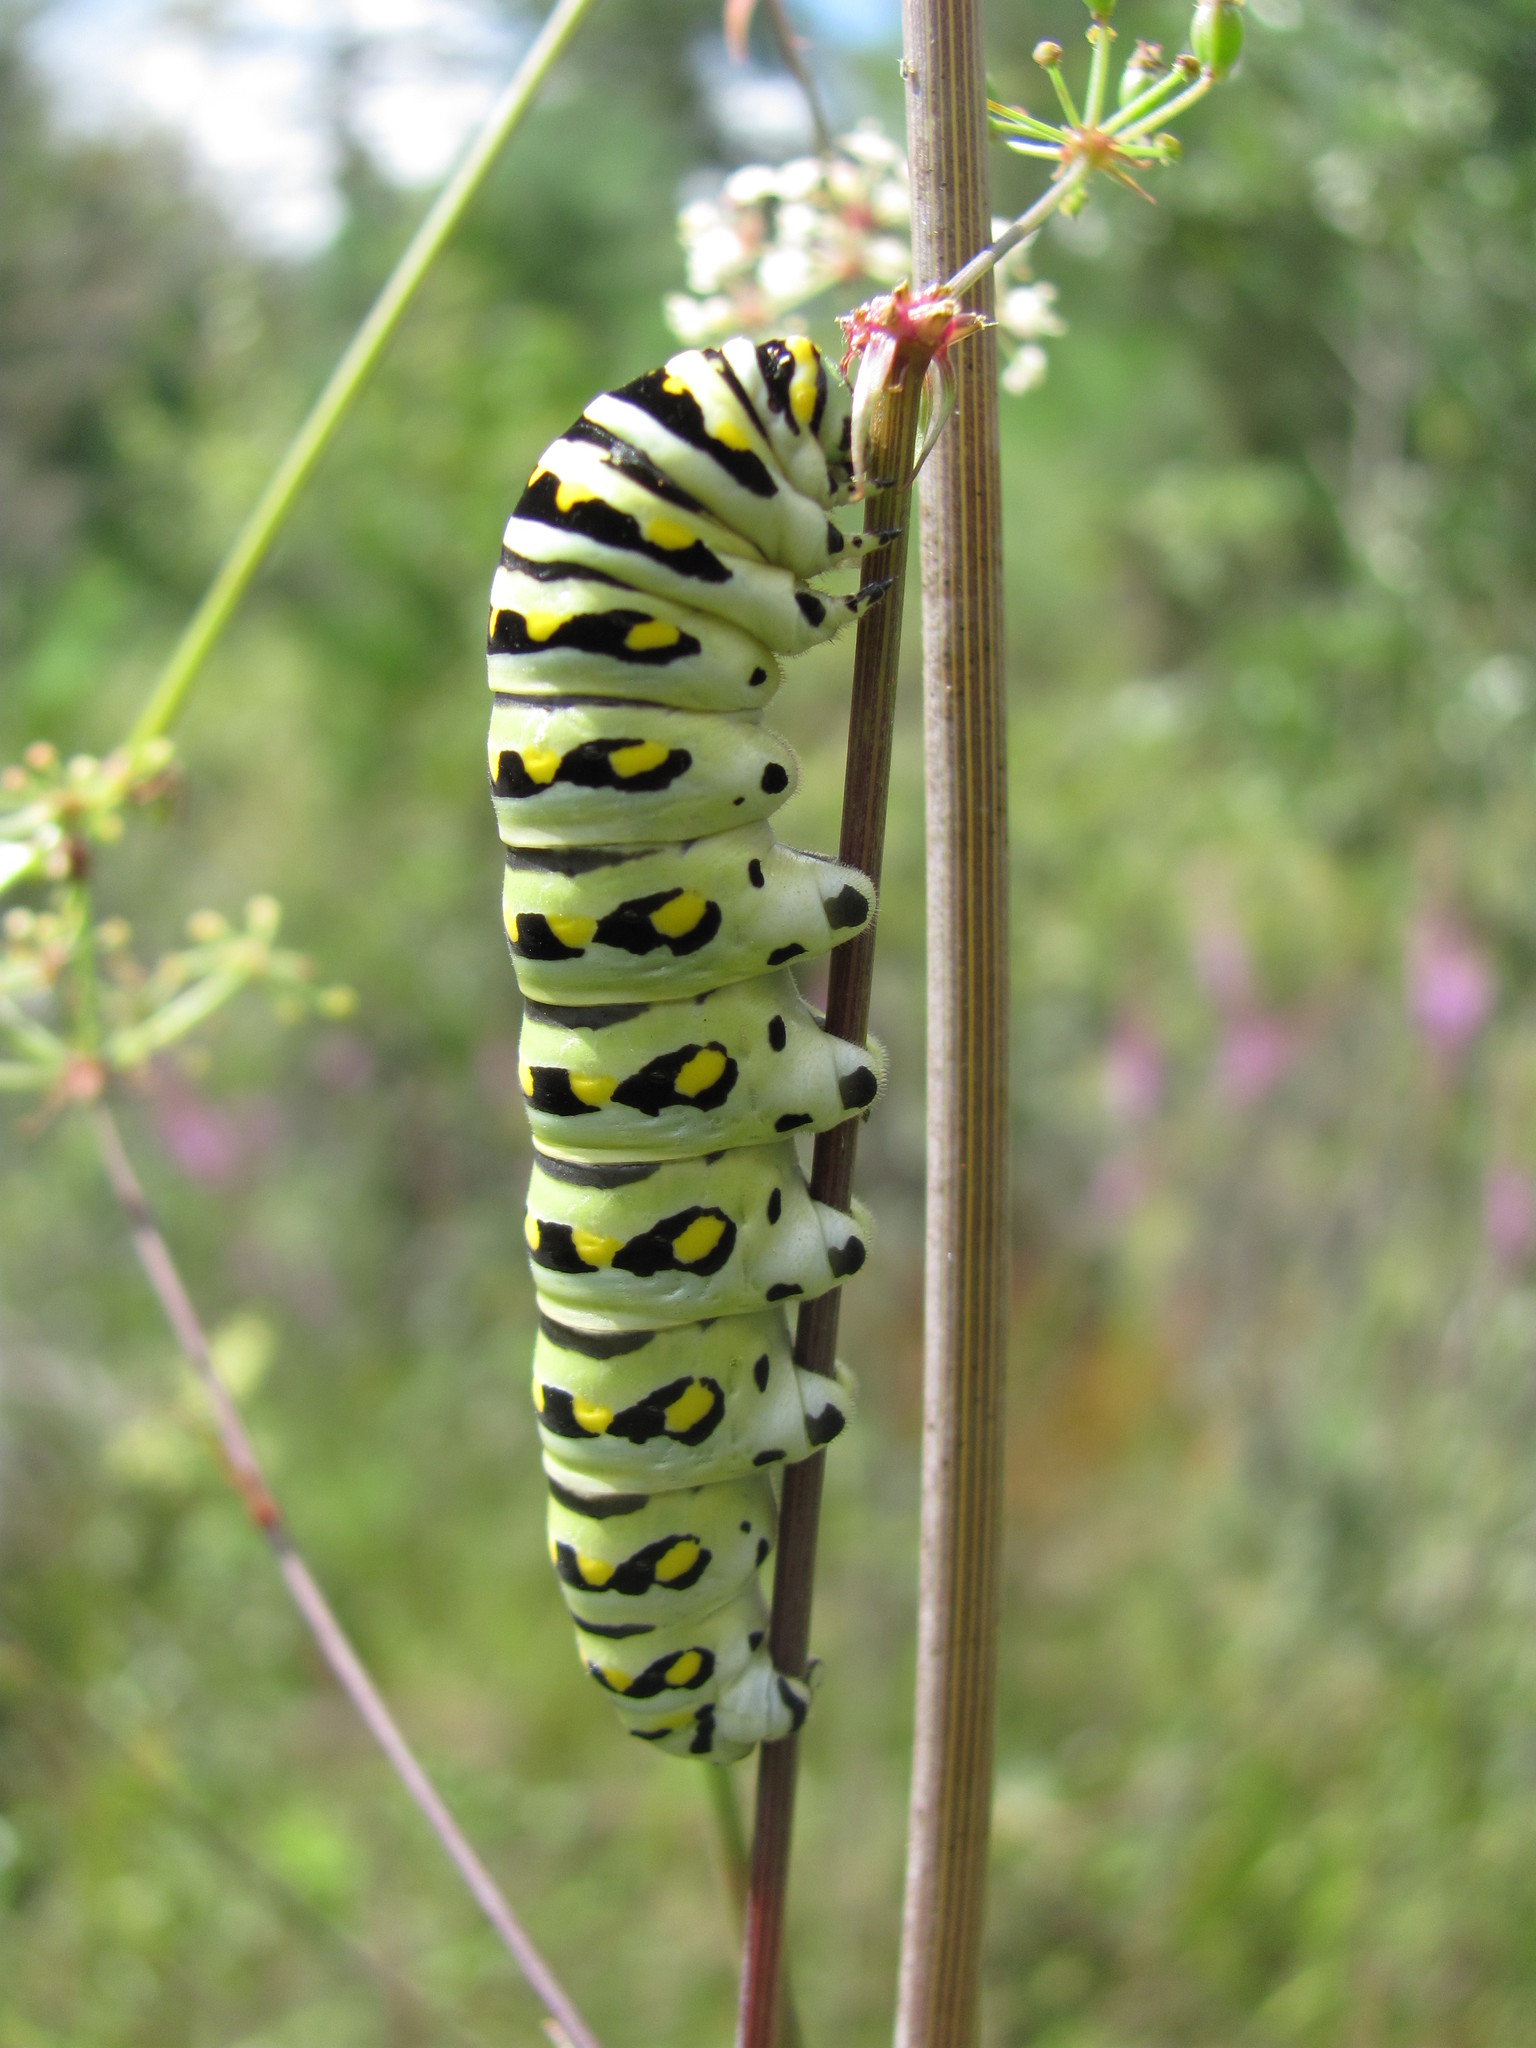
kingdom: Animalia
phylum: Arthropoda
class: Insecta
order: Lepidoptera
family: Papilionidae
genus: Papilio
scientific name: Papilio polyxenes
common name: Black swallowtail
